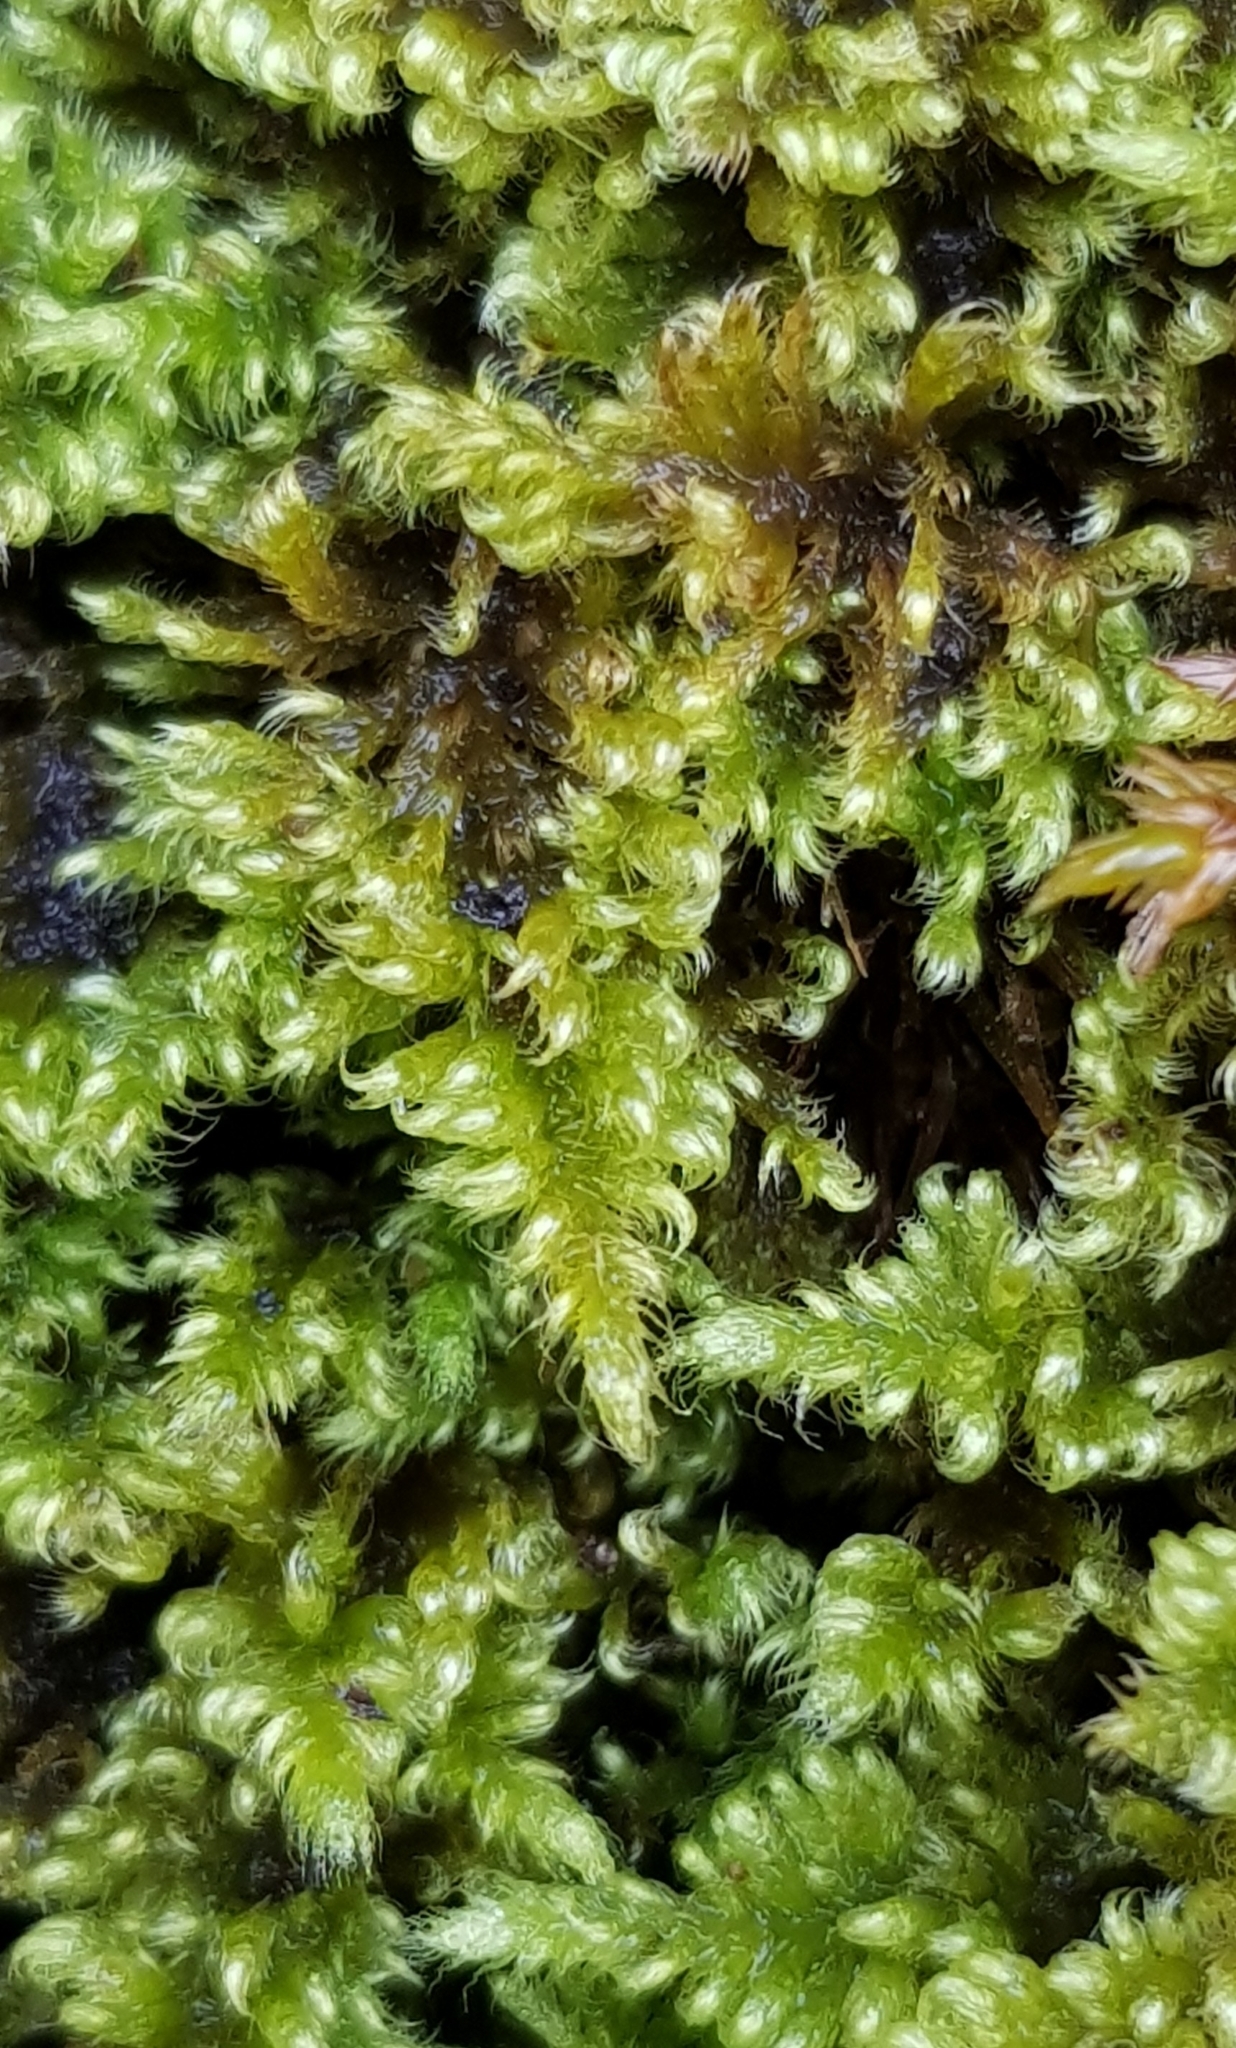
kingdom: Plantae
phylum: Bryophyta
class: Bryopsida
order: Hypnales
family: Myuriaceae
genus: Ctenidium
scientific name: Ctenidium molluscum
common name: Chalk comb-moss
